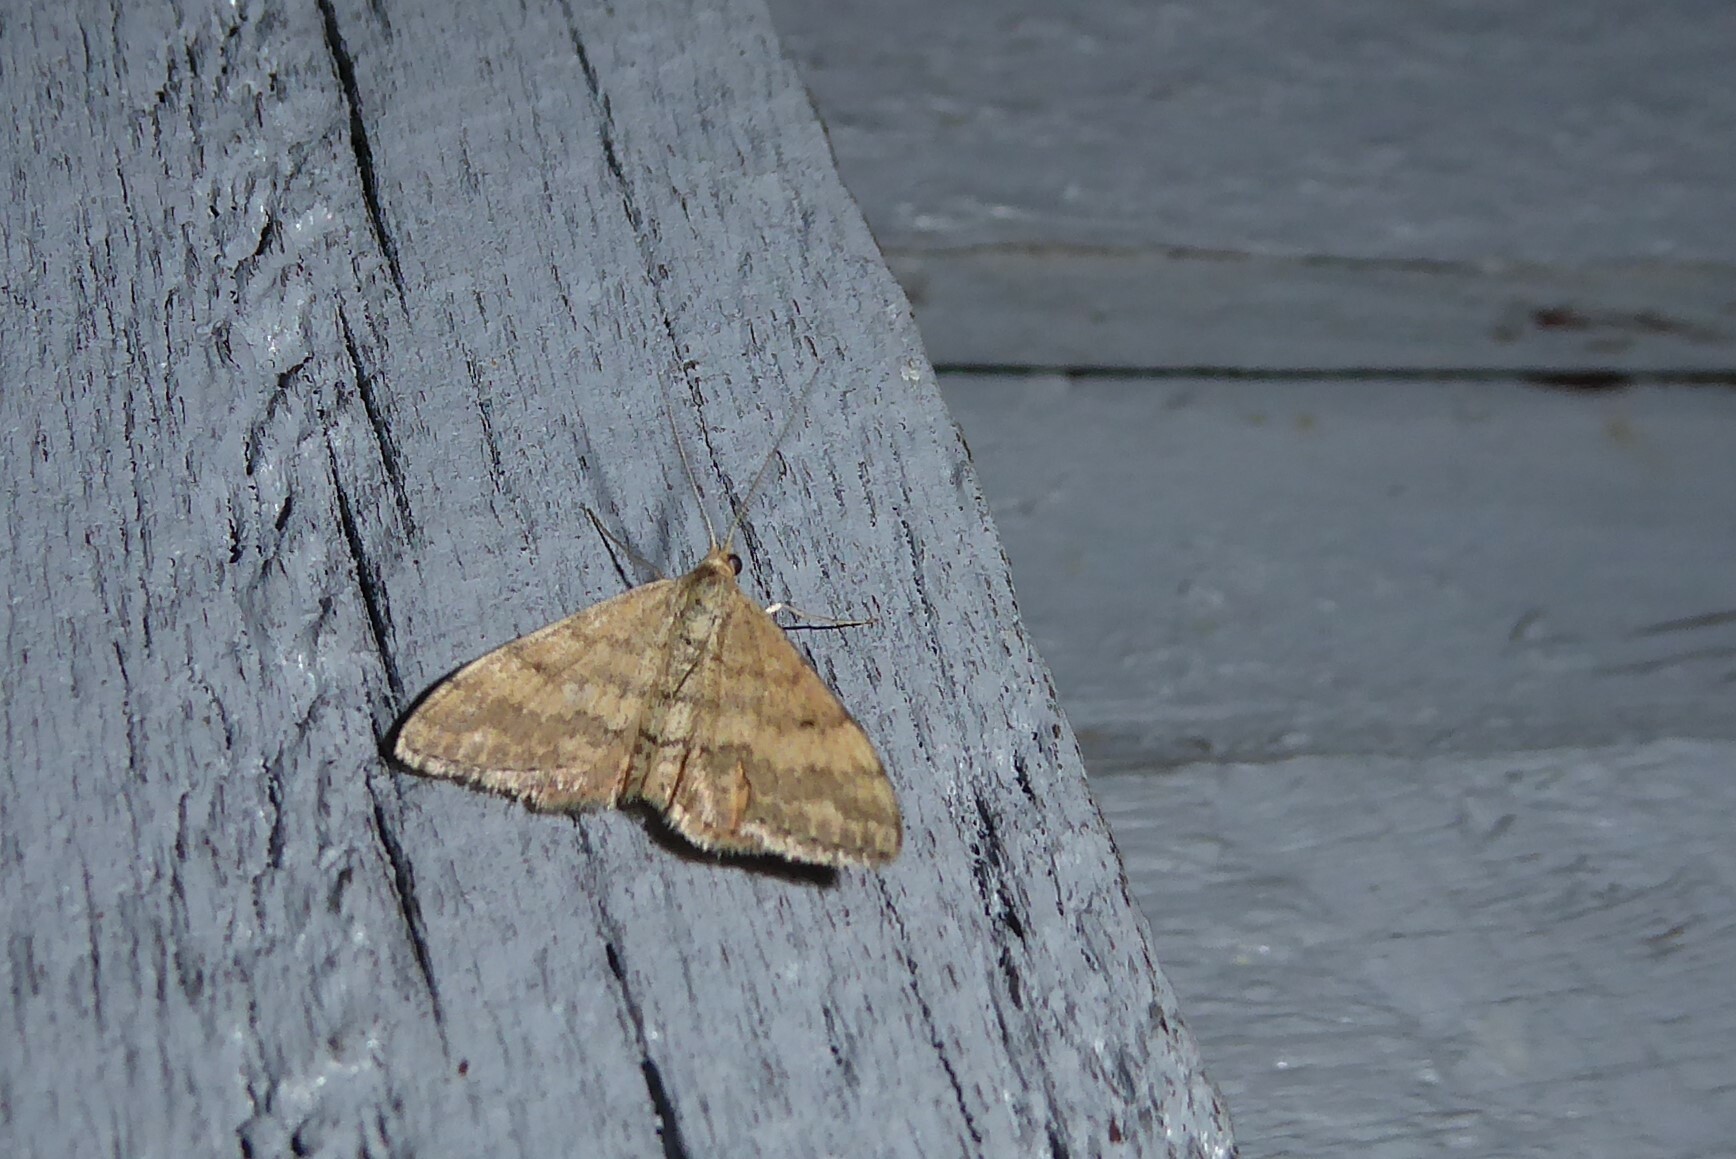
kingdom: Animalia
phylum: Arthropoda
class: Insecta
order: Lepidoptera
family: Geometridae
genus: Scopula
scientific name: Scopula rubraria
